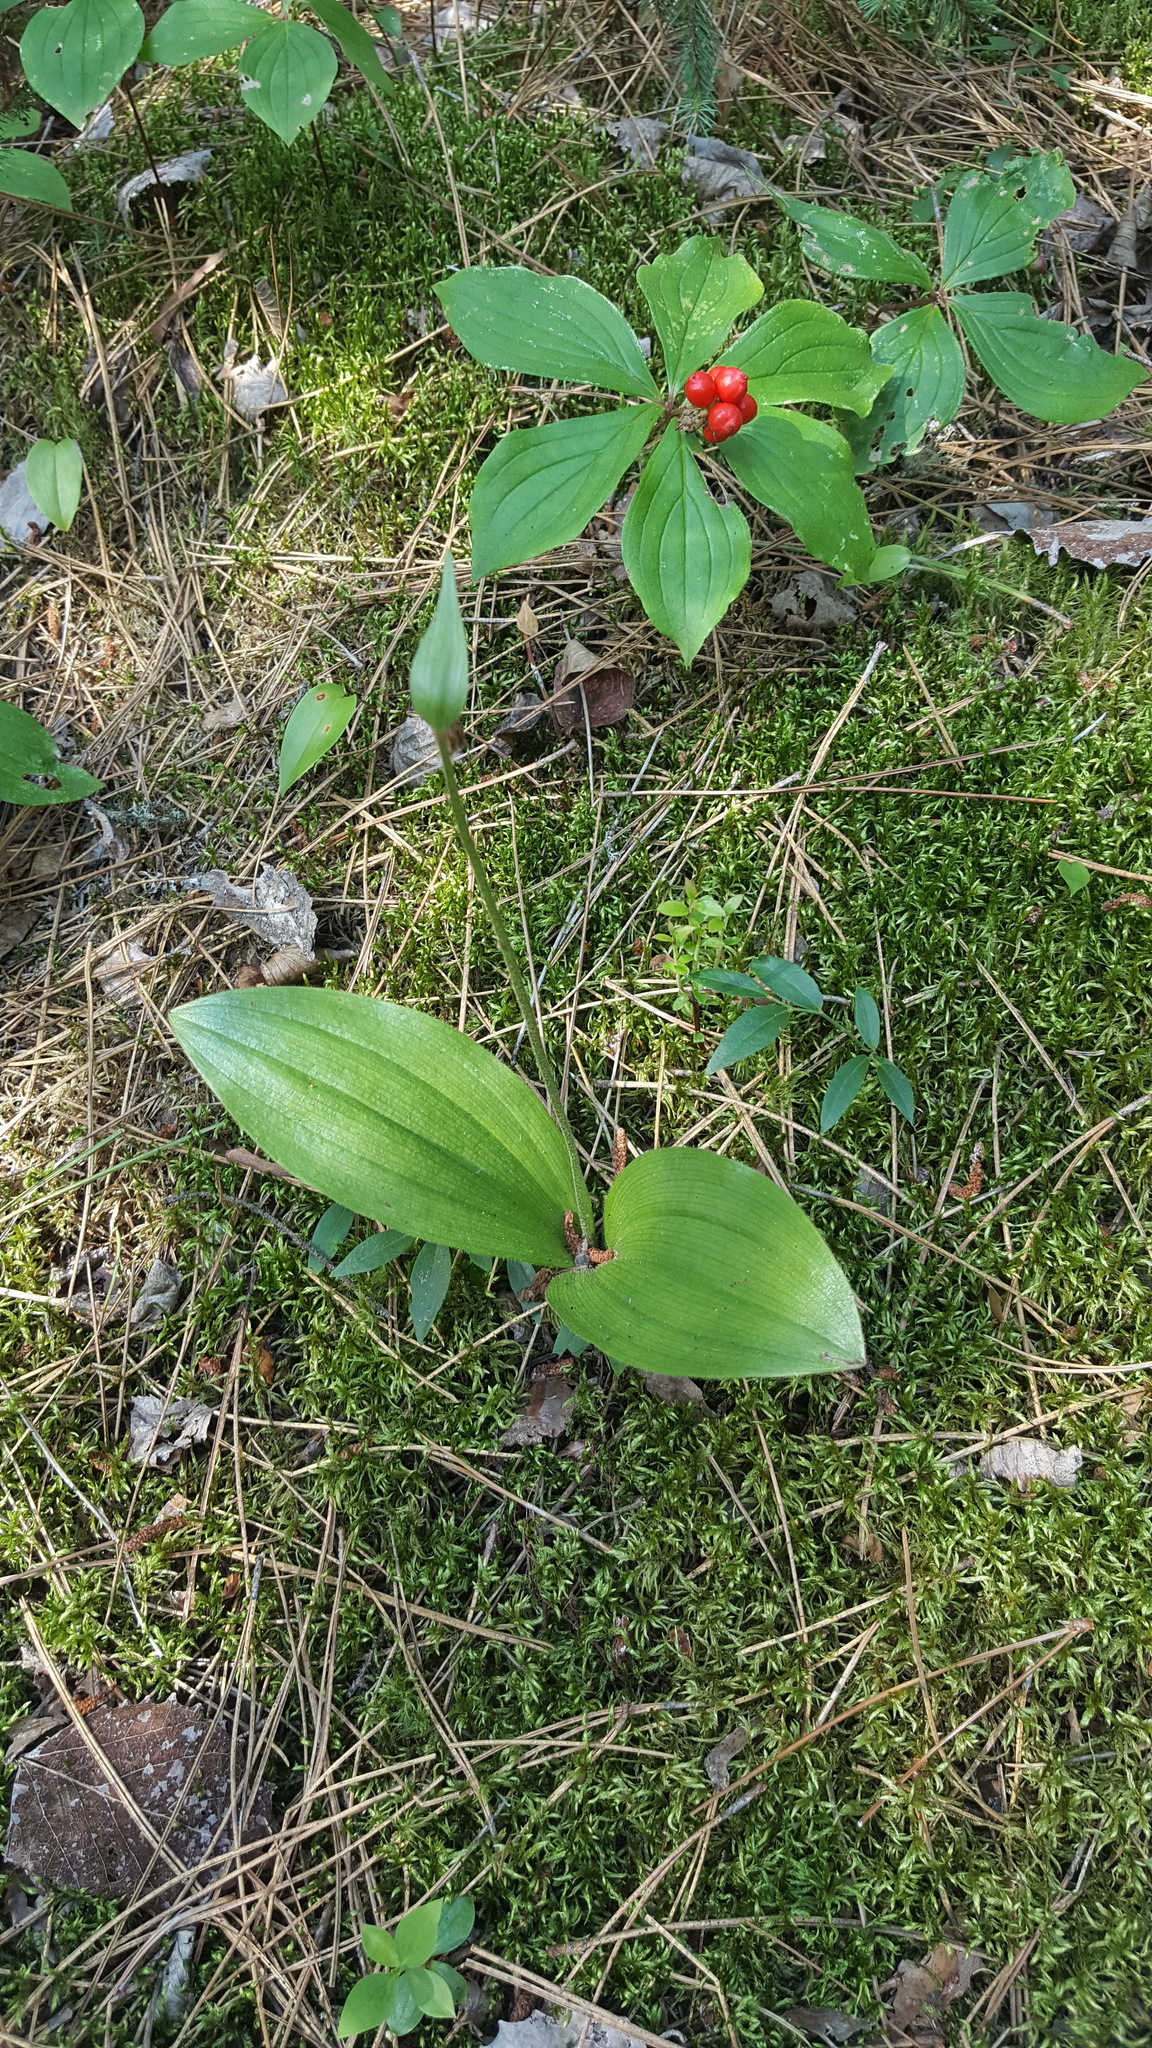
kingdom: Plantae
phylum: Tracheophyta
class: Liliopsida
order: Asparagales
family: Orchidaceae
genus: Cypripedium
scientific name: Cypripedium acaule
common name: Pink lady's-slipper
